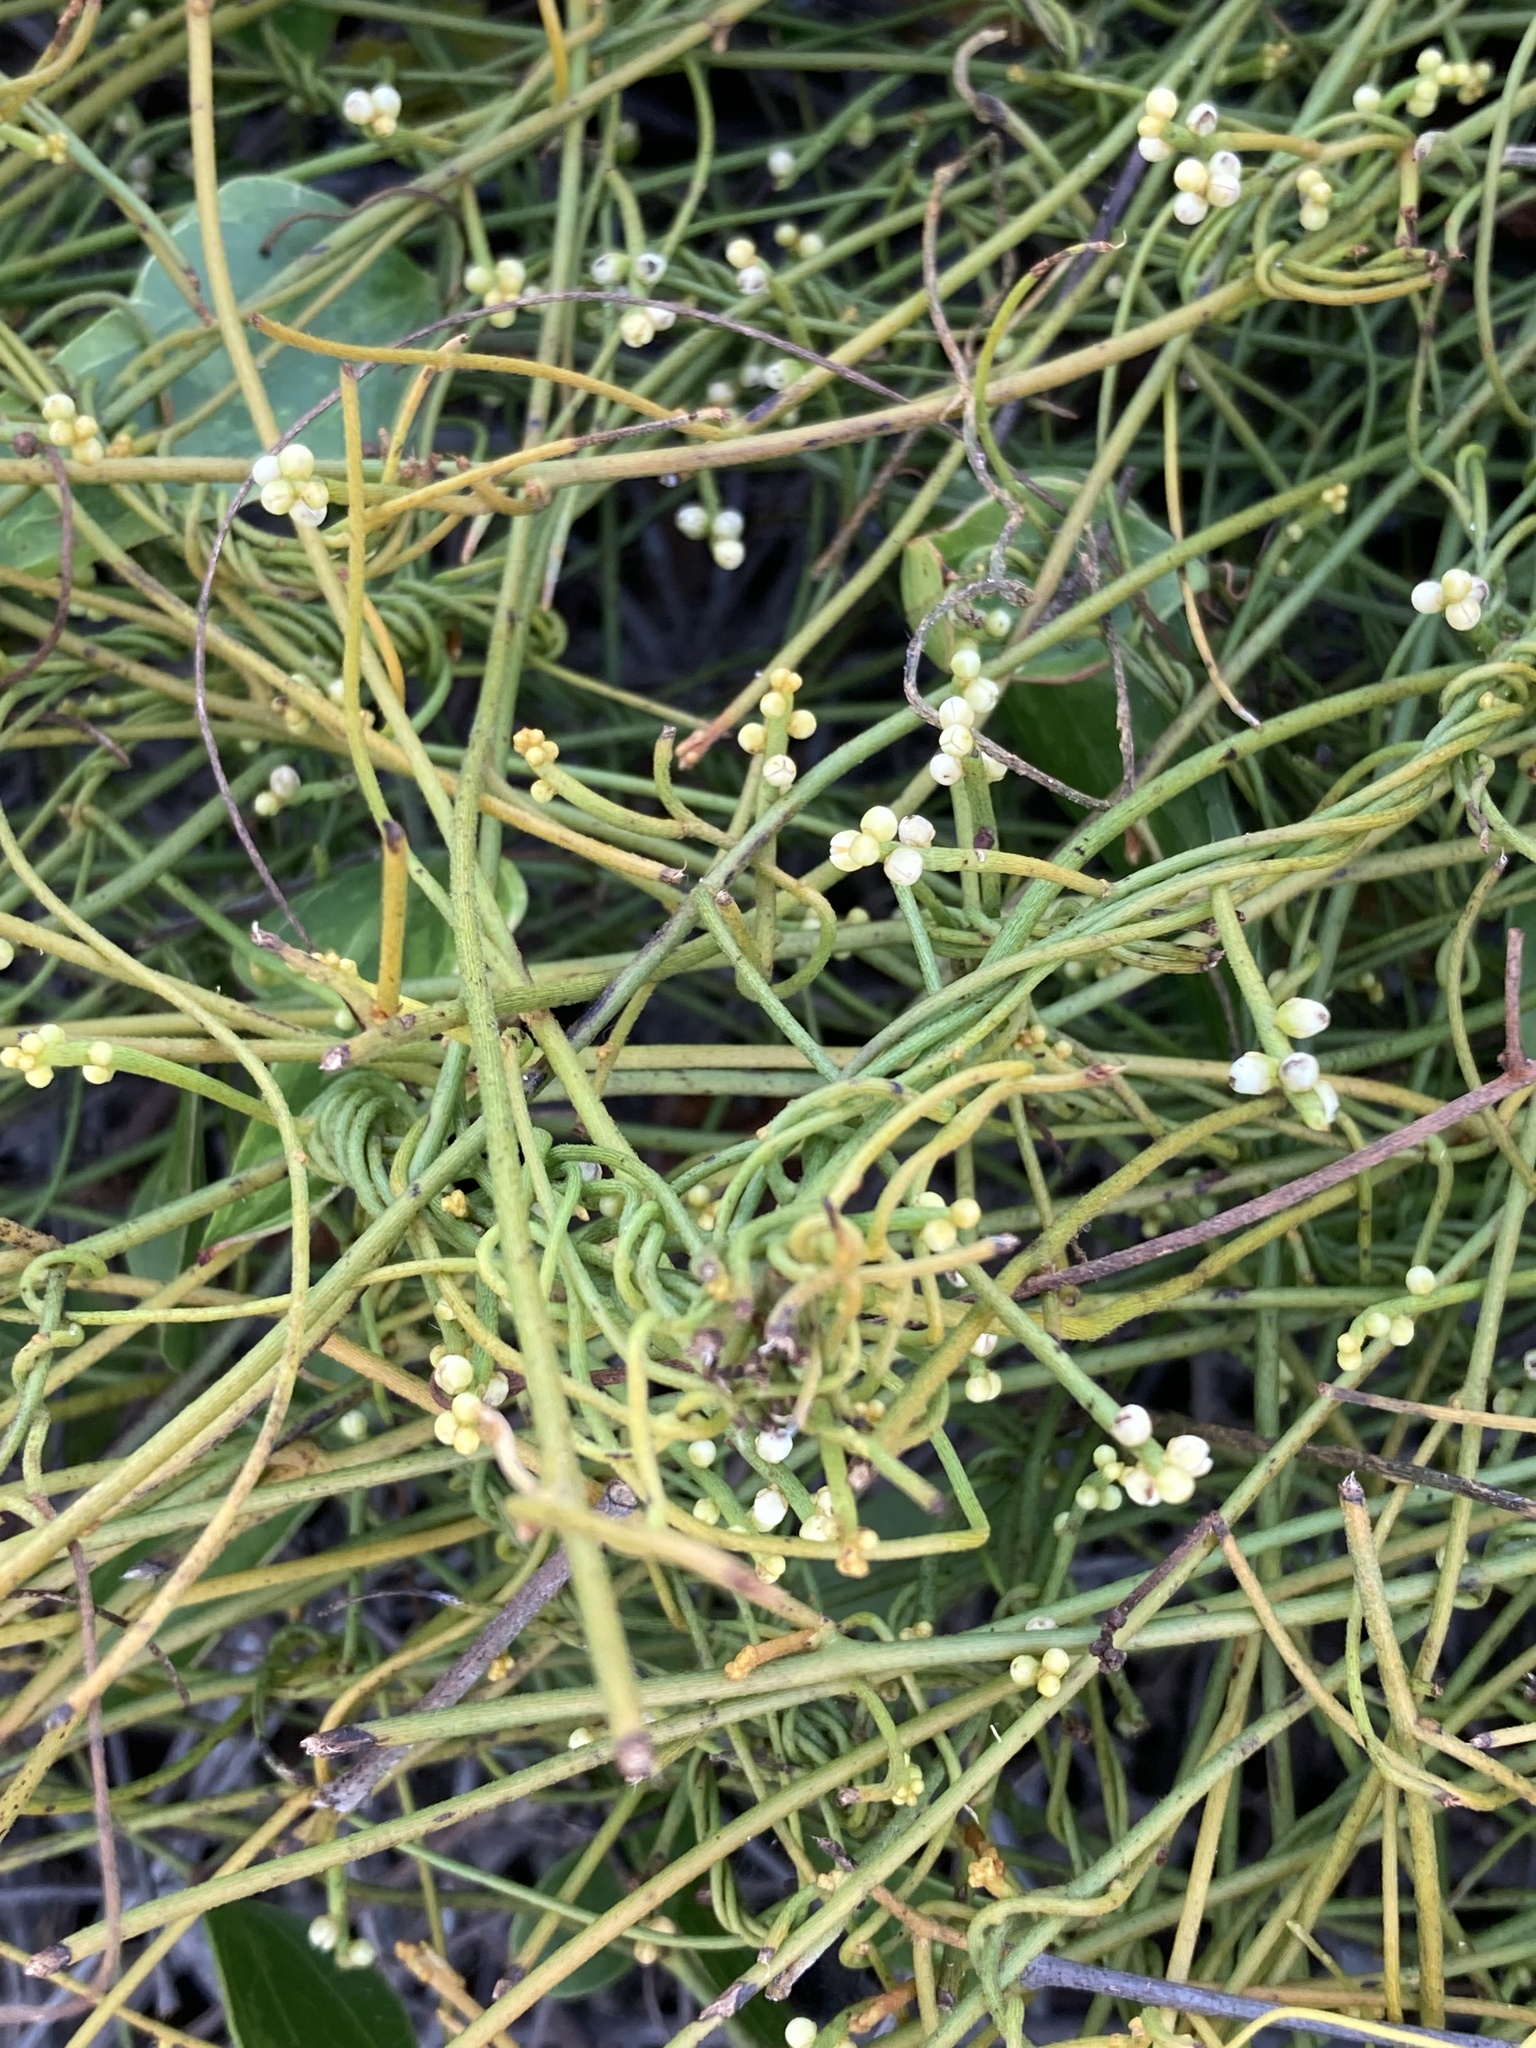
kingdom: Plantae
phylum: Tracheophyta
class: Magnoliopsida
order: Laurales
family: Lauraceae
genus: Cassytha
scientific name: Cassytha filiformis
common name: Dodder-laurel
